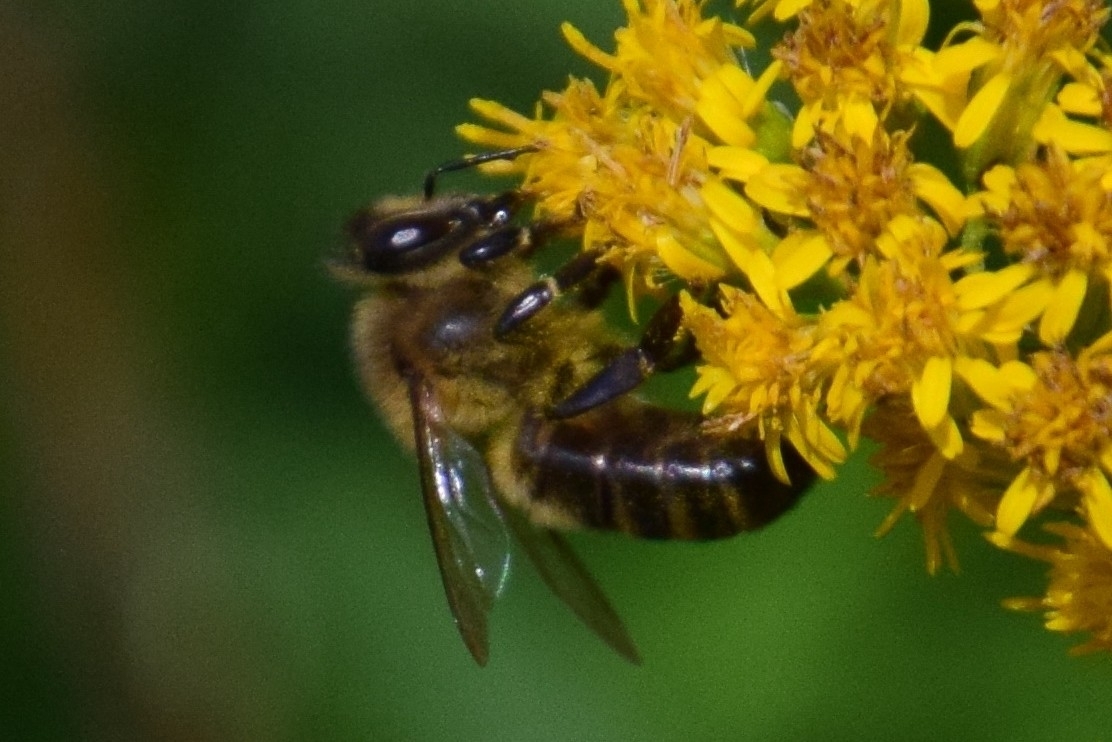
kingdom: Animalia
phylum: Arthropoda
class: Insecta
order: Hymenoptera
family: Apidae
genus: Apis
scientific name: Apis mellifera
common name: Honey bee
